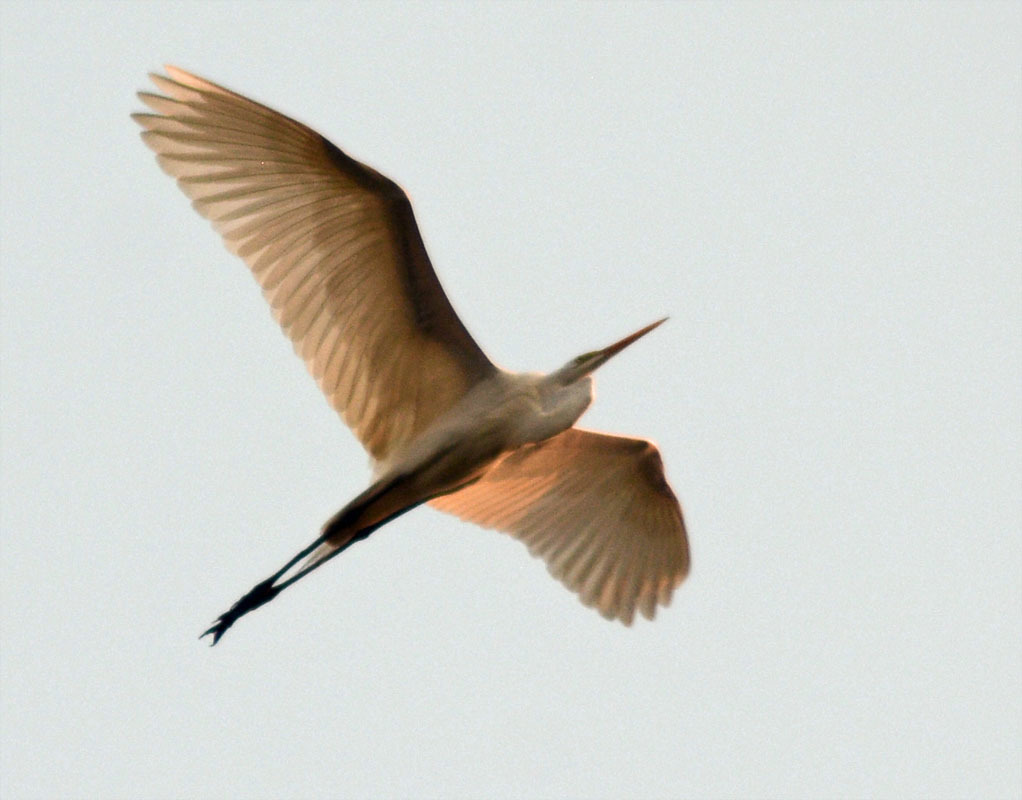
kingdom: Animalia
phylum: Chordata
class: Aves
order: Pelecaniformes
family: Ardeidae
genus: Ardea
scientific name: Ardea alba
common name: Great egret
